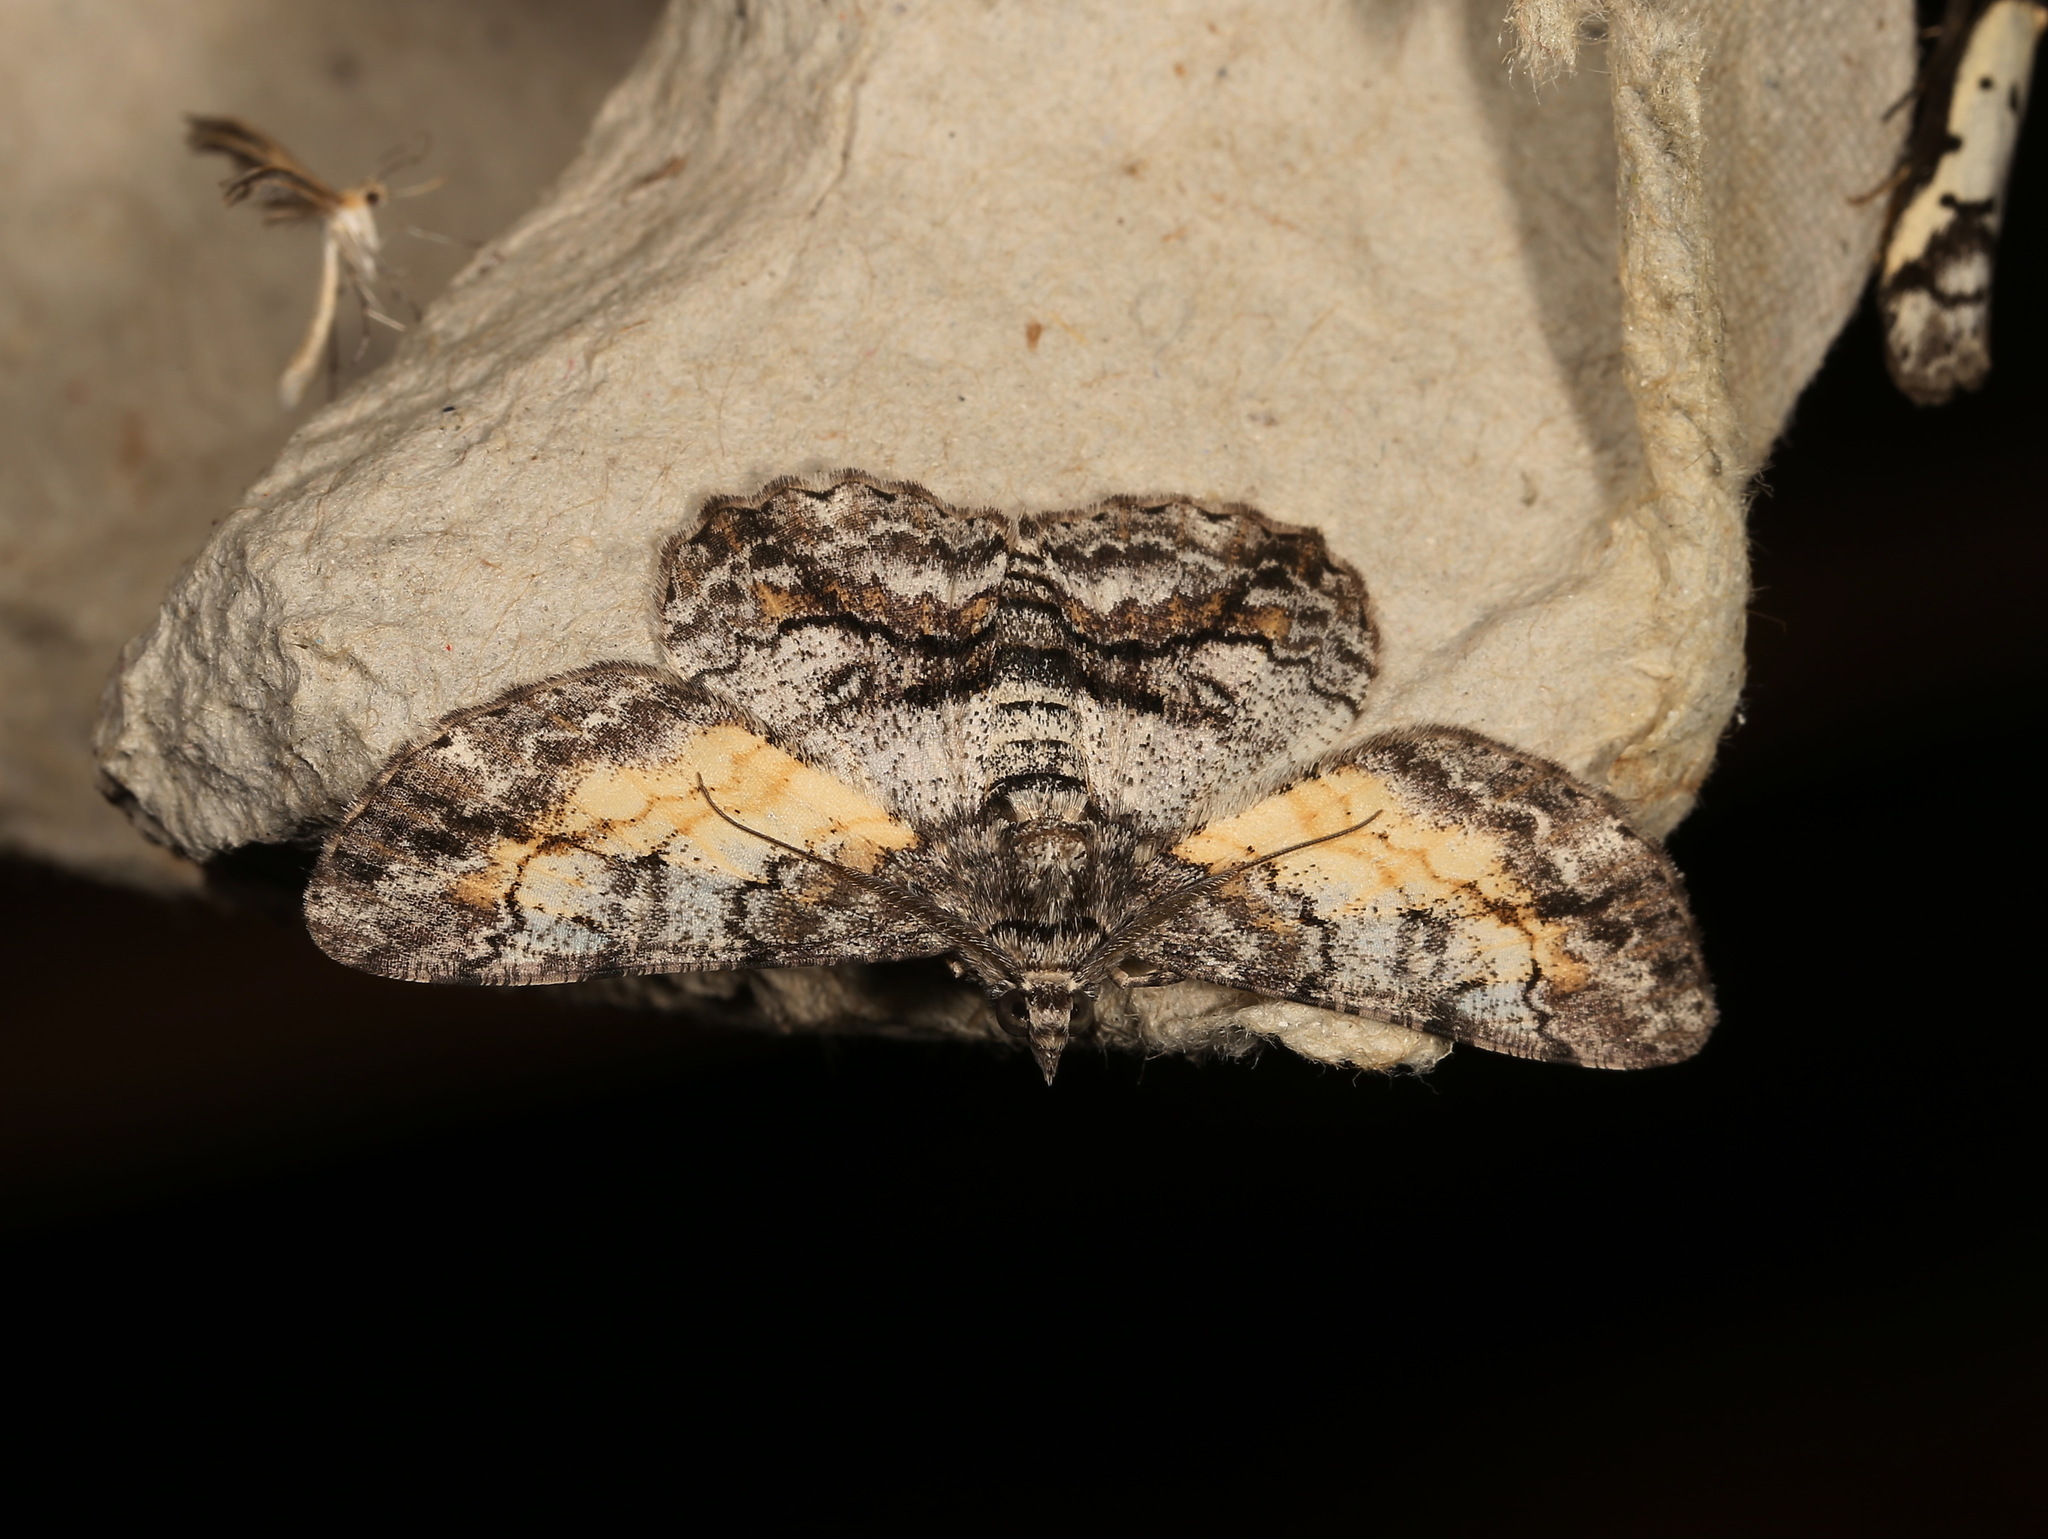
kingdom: Animalia
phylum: Arthropoda
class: Insecta
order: Lepidoptera
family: Geometridae
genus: Cleora
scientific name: Cleora injectaria
